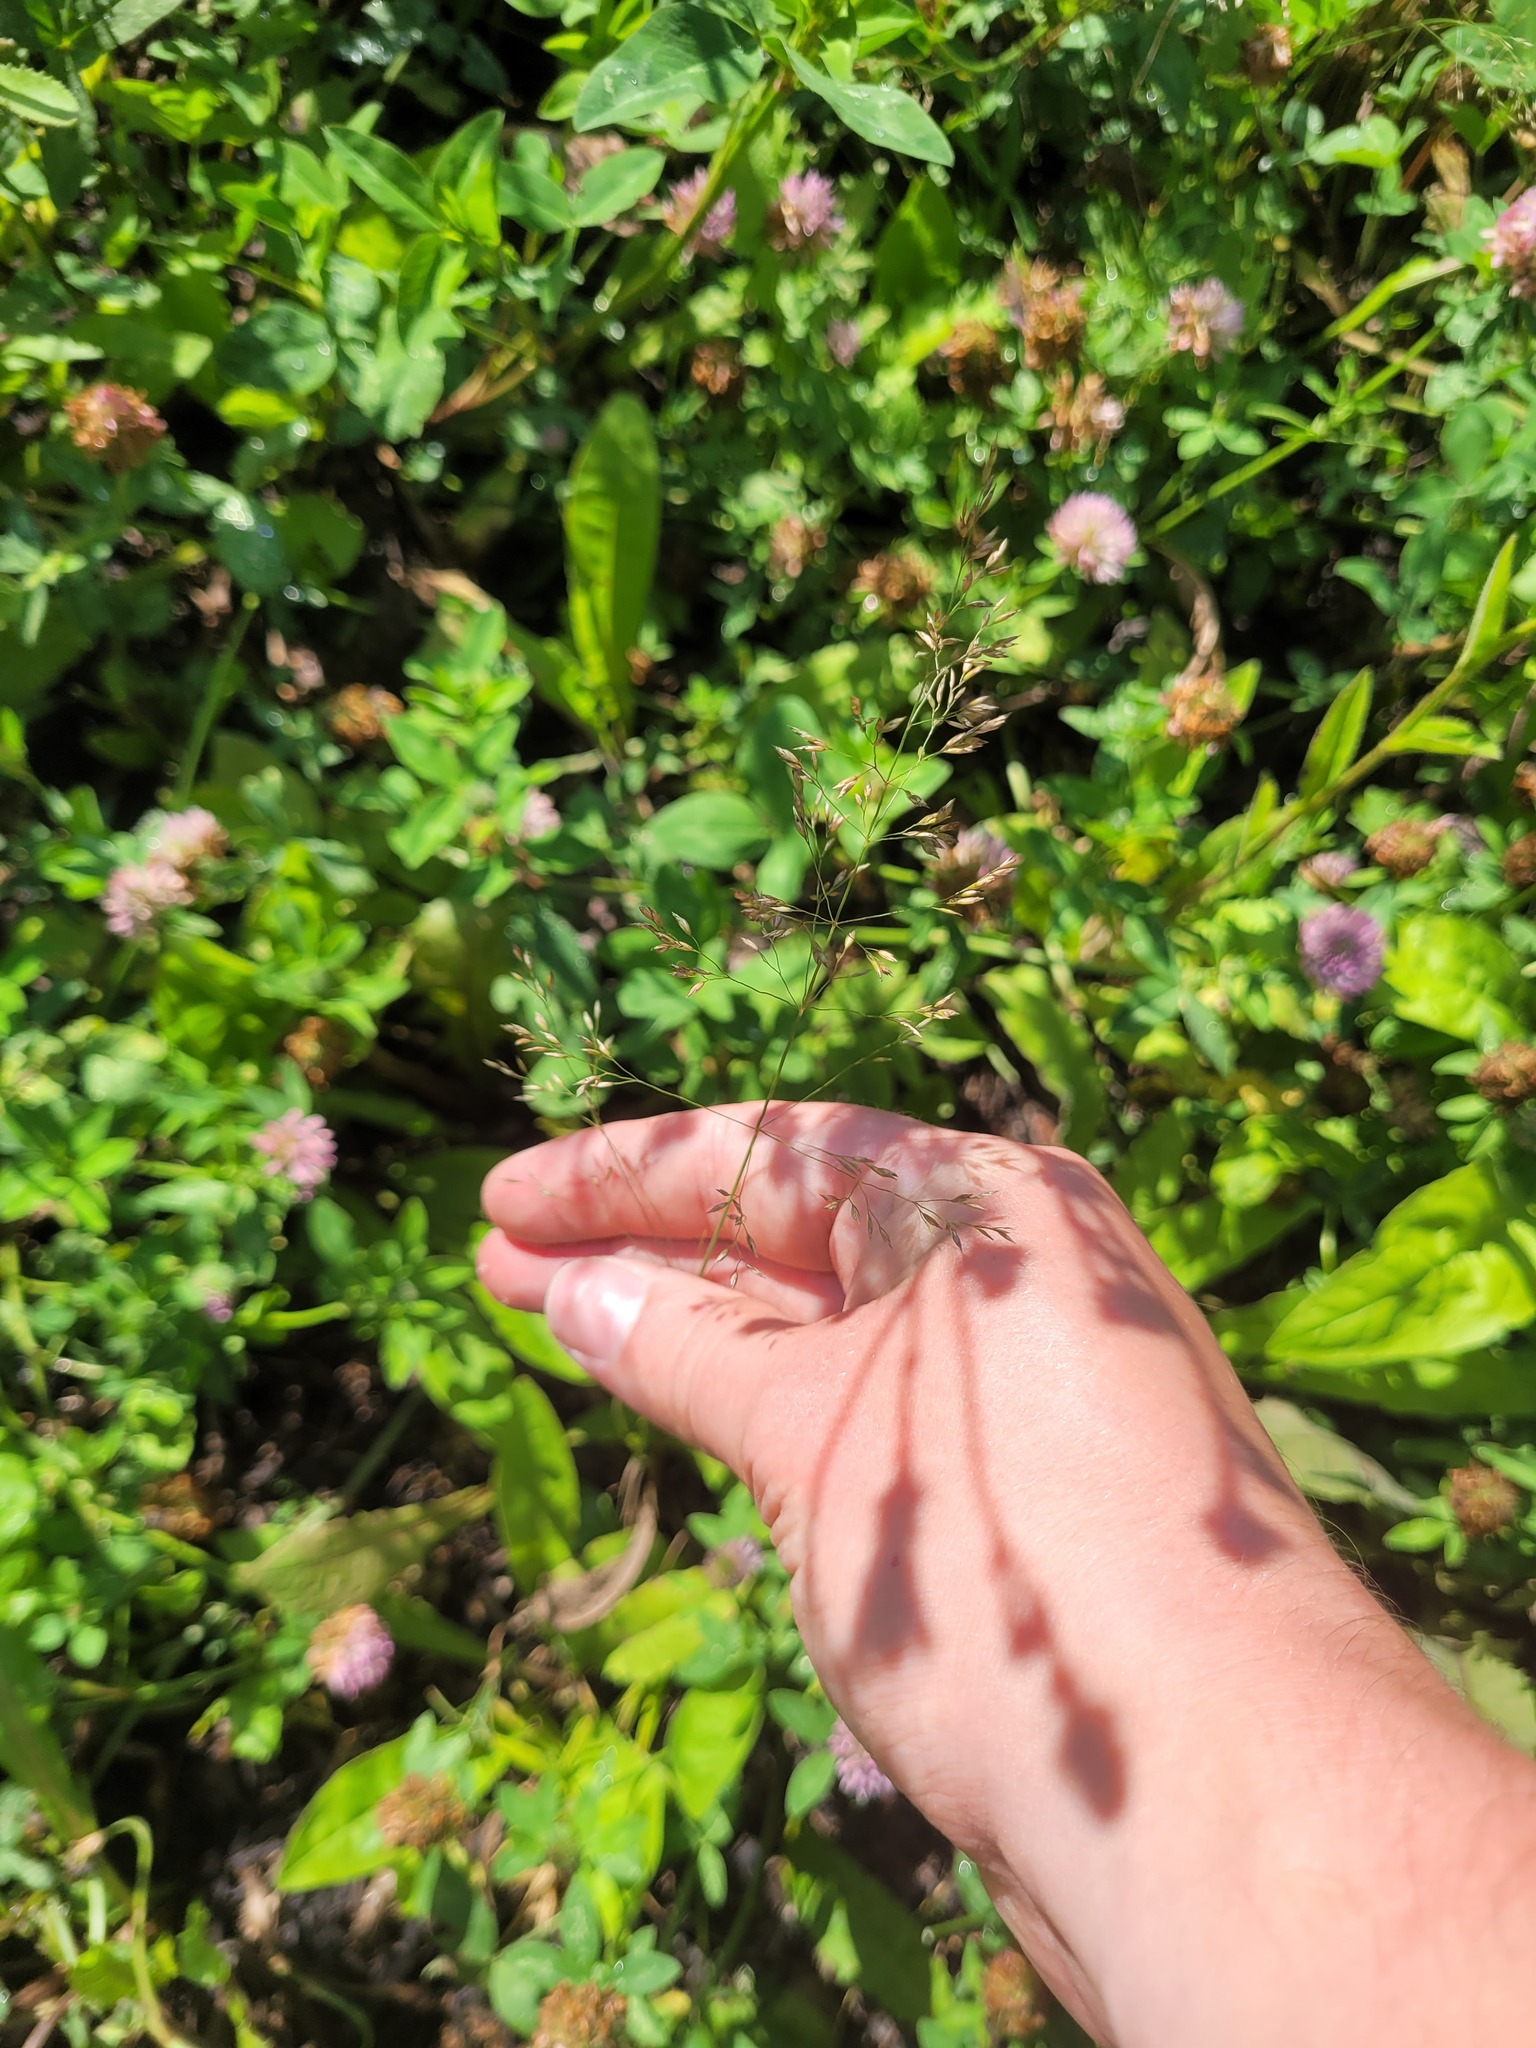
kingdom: Plantae
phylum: Tracheophyta
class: Liliopsida
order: Poales
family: Poaceae
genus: Poa
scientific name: Poa palustris
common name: Swamp meadow-grass
